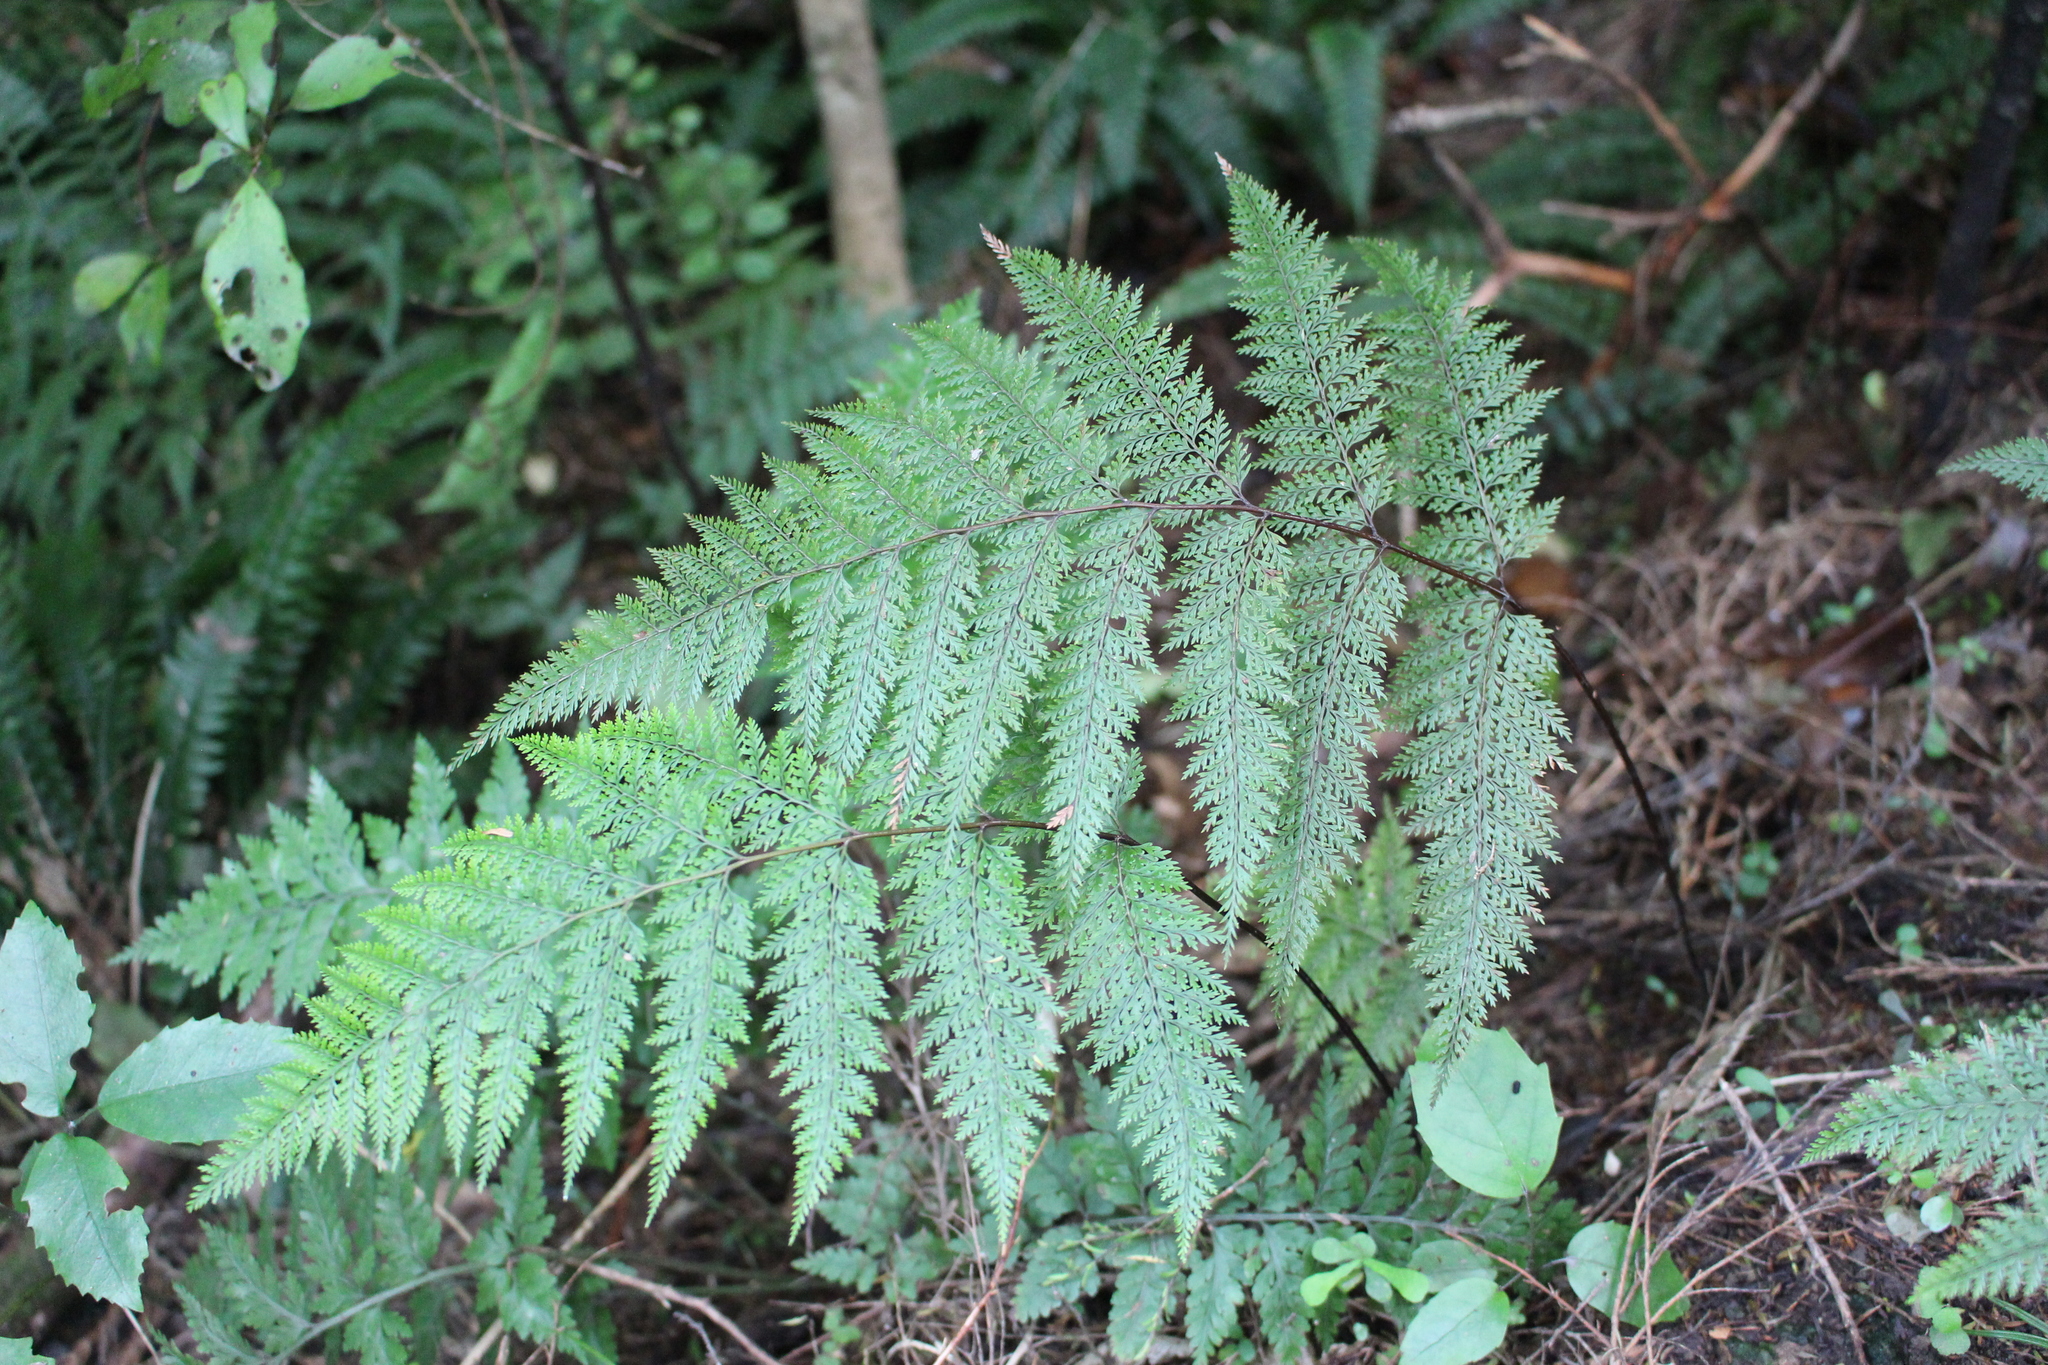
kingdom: Plantae
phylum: Tracheophyta
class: Polypodiopsida
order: Polypodiales
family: Dennstaedtiaceae
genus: Dennstaedtia
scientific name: Dennstaedtia novae-zelandiae
